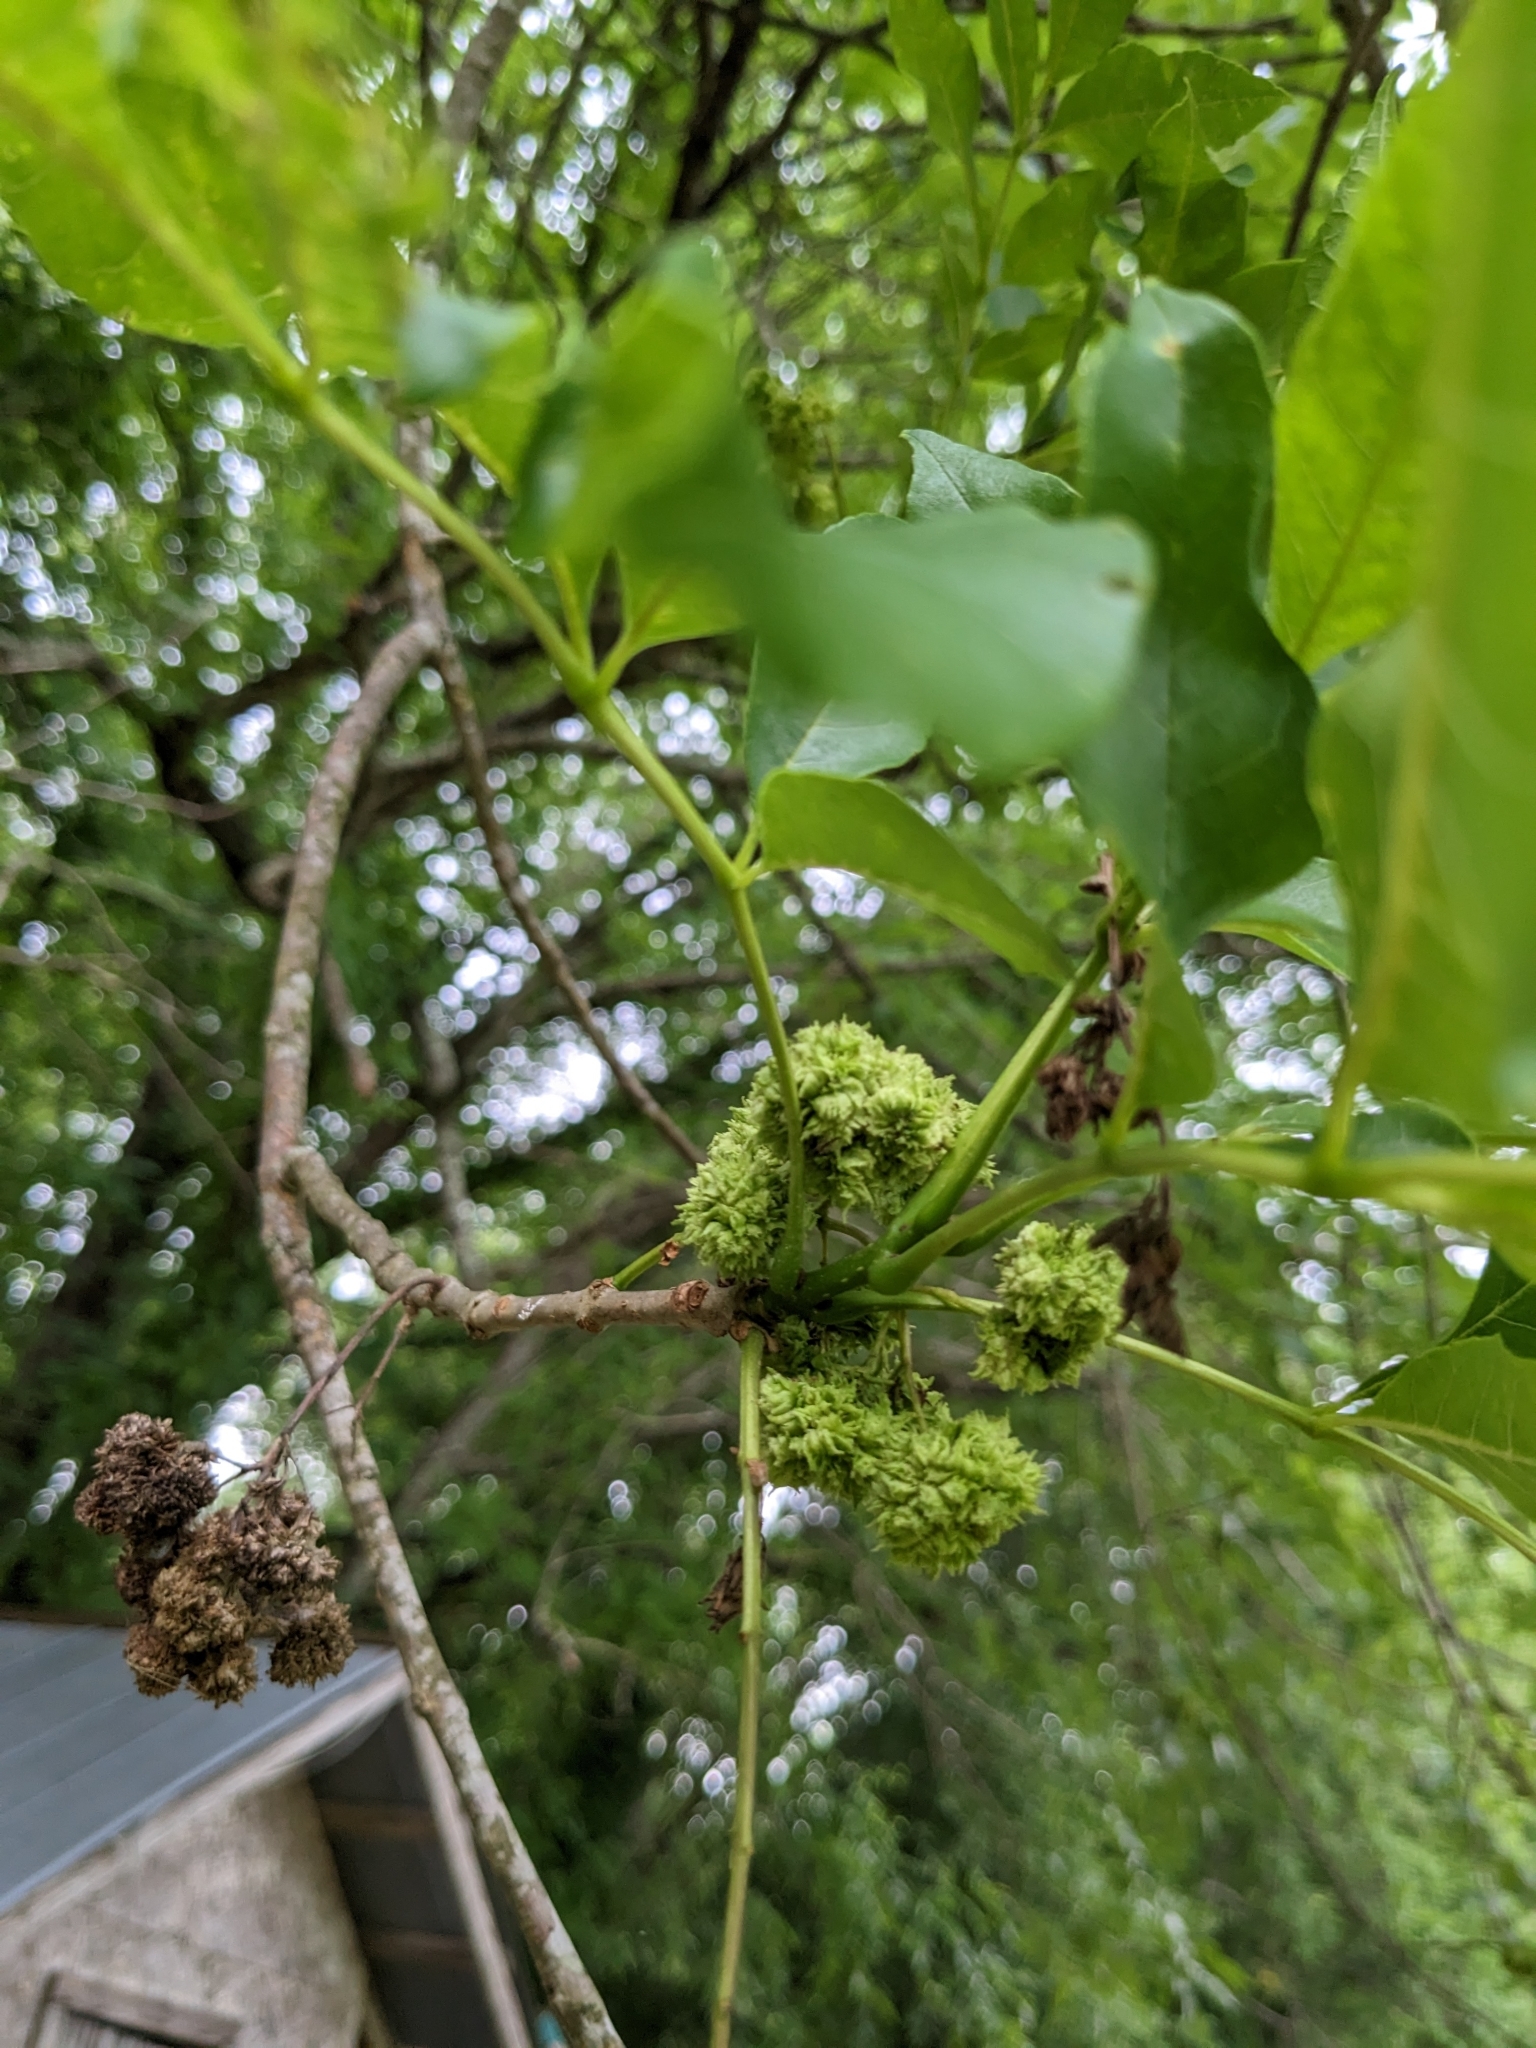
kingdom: Animalia
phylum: Arthropoda
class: Arachnida
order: Trombidiformes
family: Eriophyidae
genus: Aceria
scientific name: Aceria fraxiniflora
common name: Ash flower gall mite
